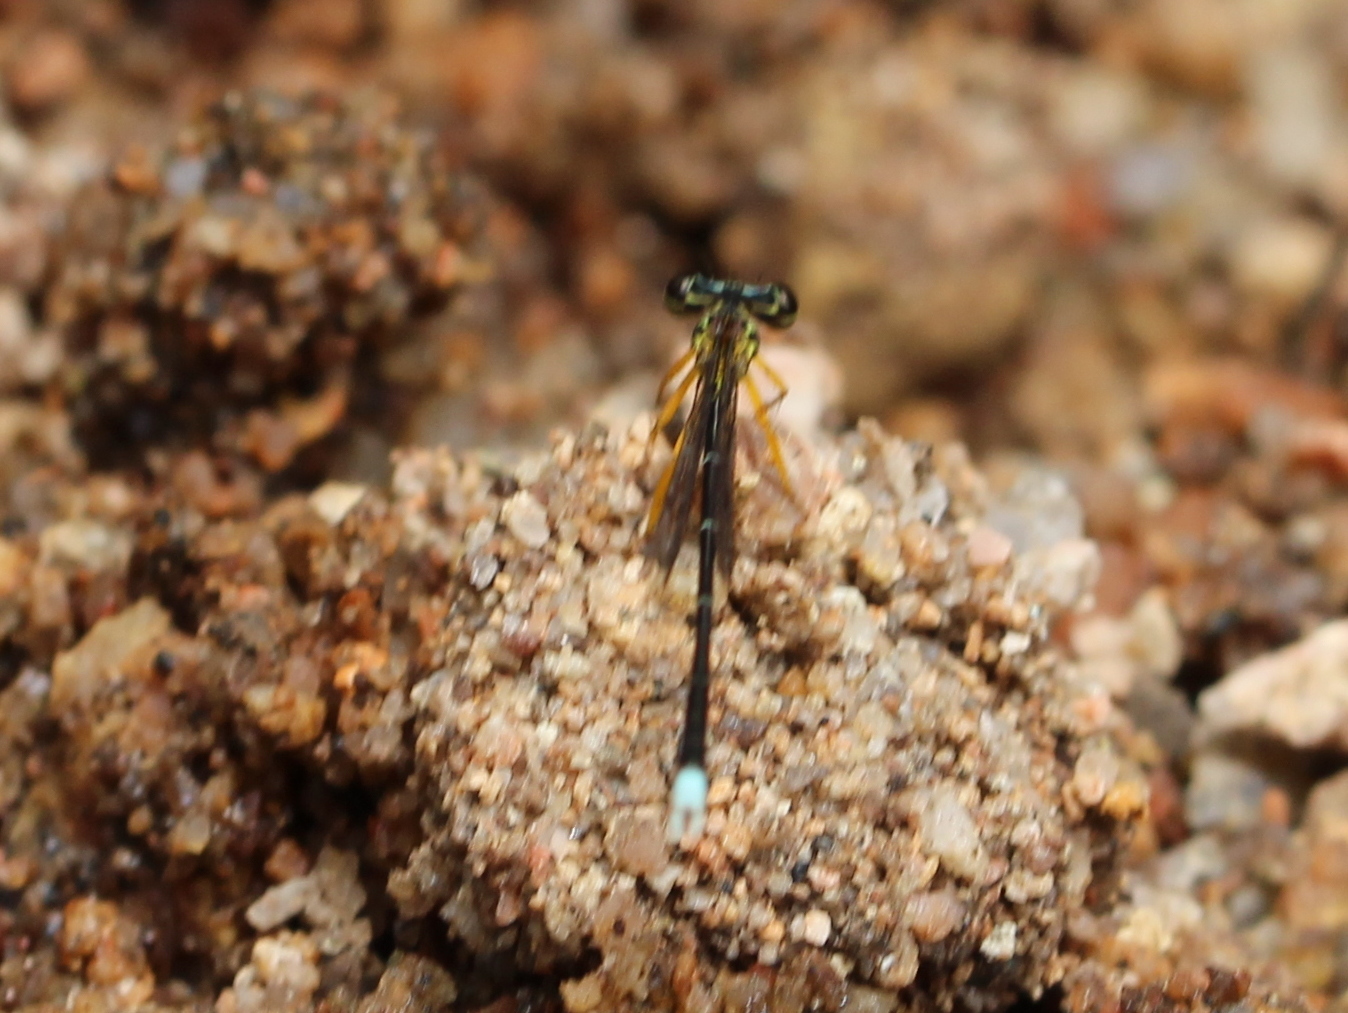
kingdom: Animalia
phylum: Arthropoda
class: Insecta
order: Odonata
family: Platycnemididae
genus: Copera
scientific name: Copera marginipes
